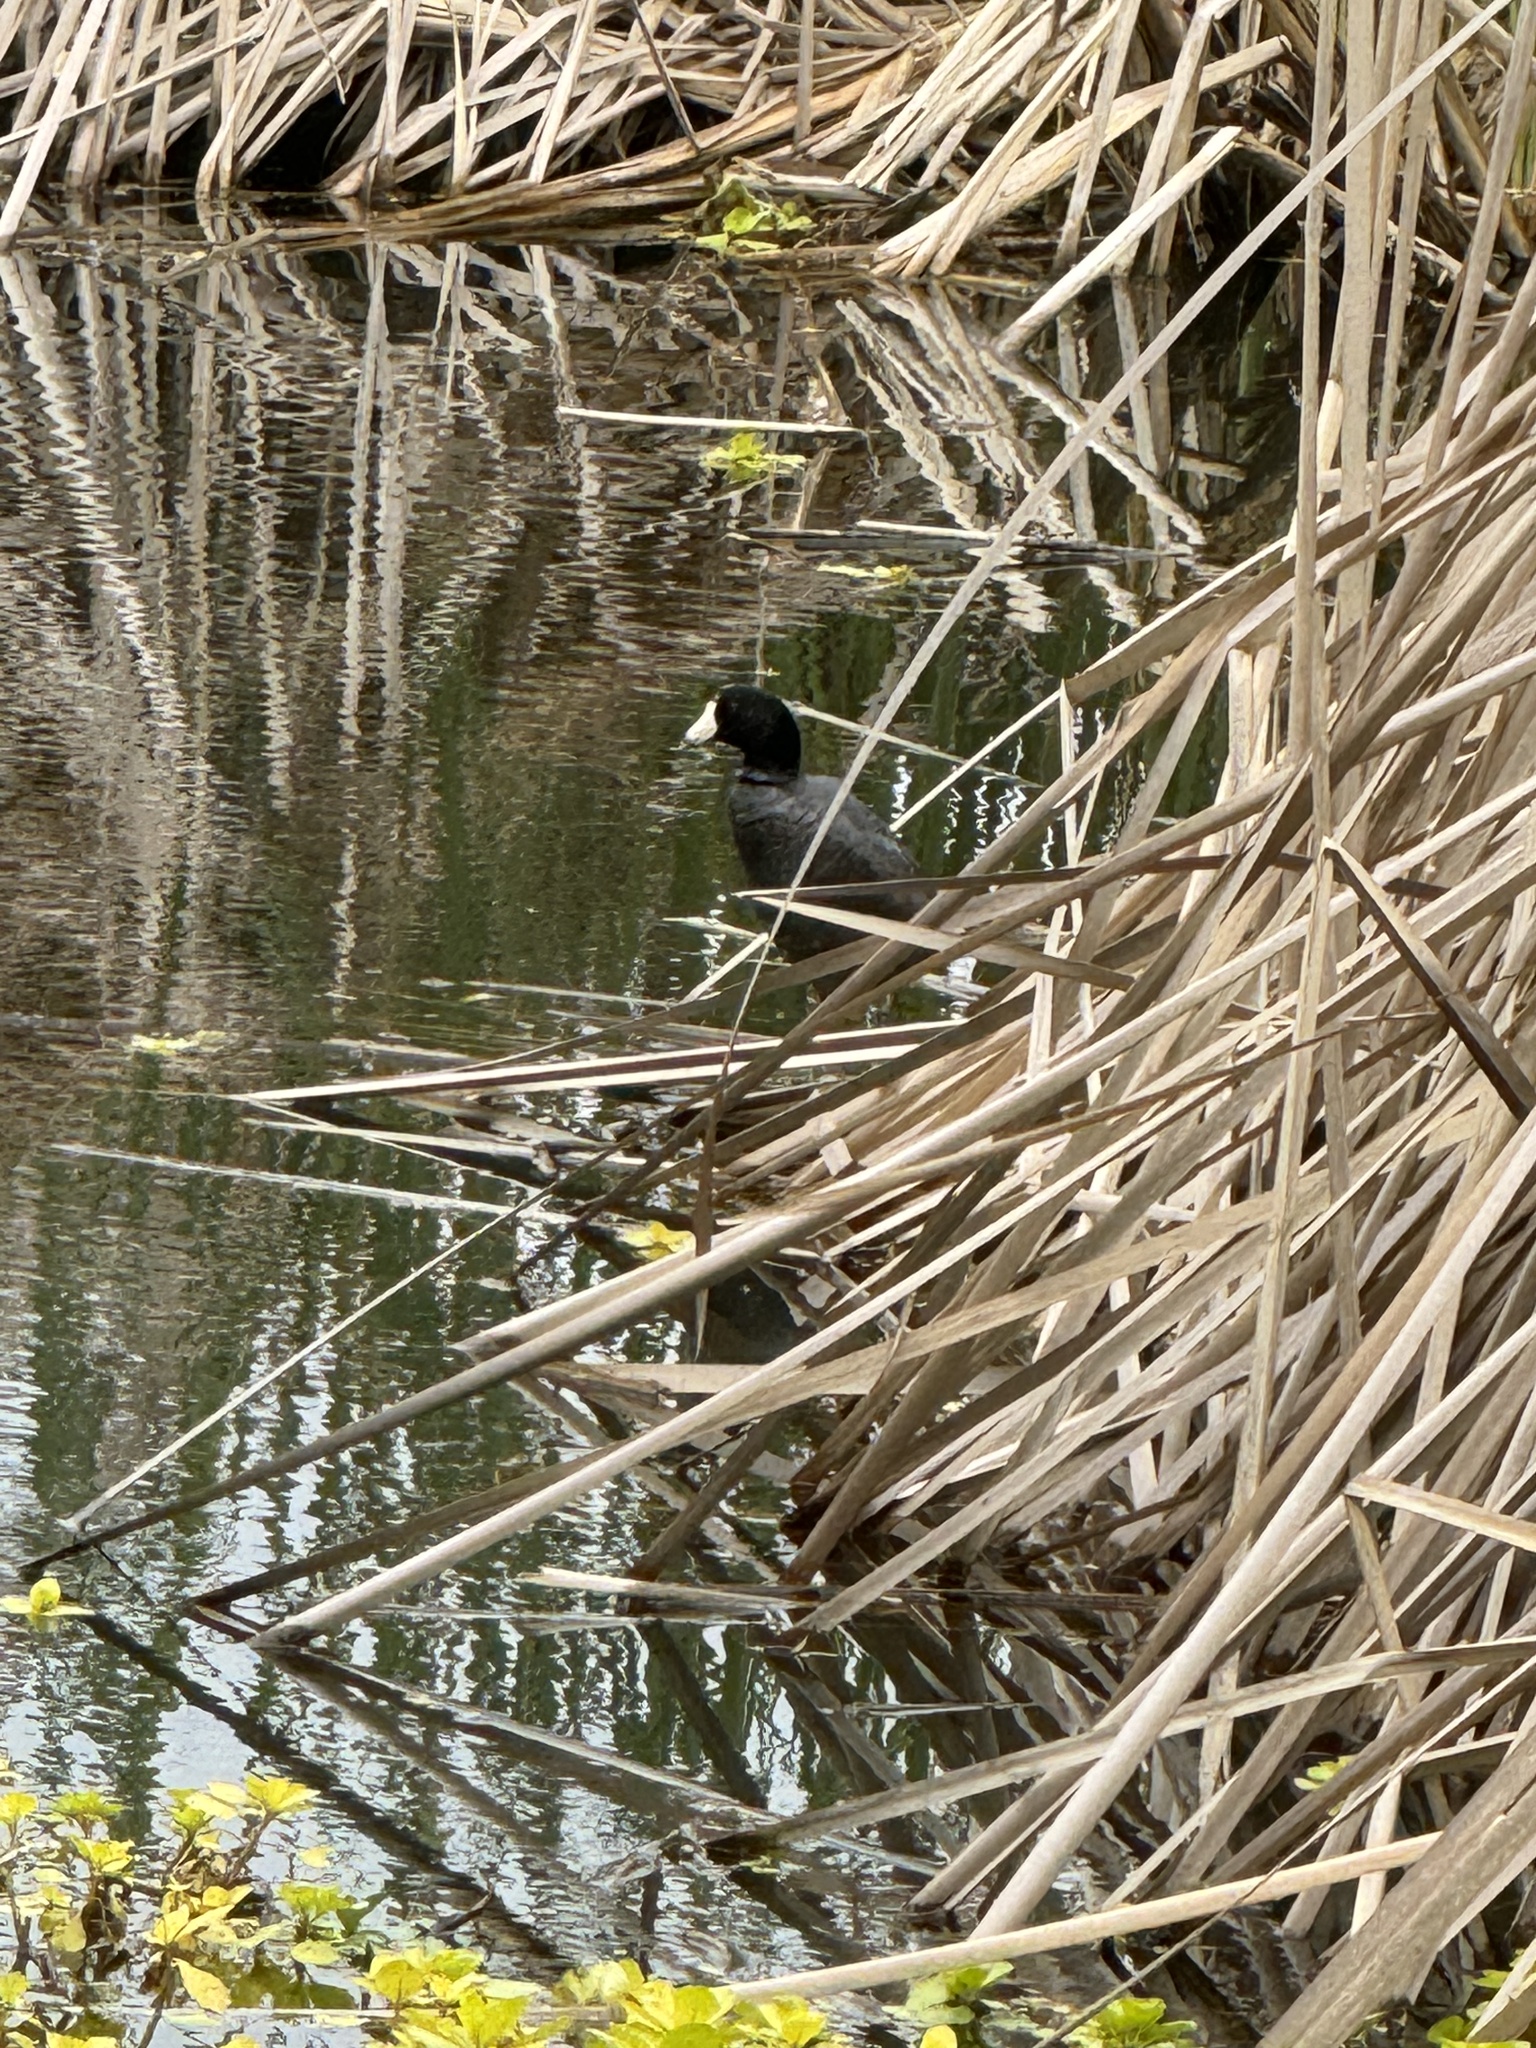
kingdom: Animalia
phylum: Chordata
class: Aves
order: Gruiformes
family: Rallidae
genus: Fulica
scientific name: Fulica americana
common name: American coot
